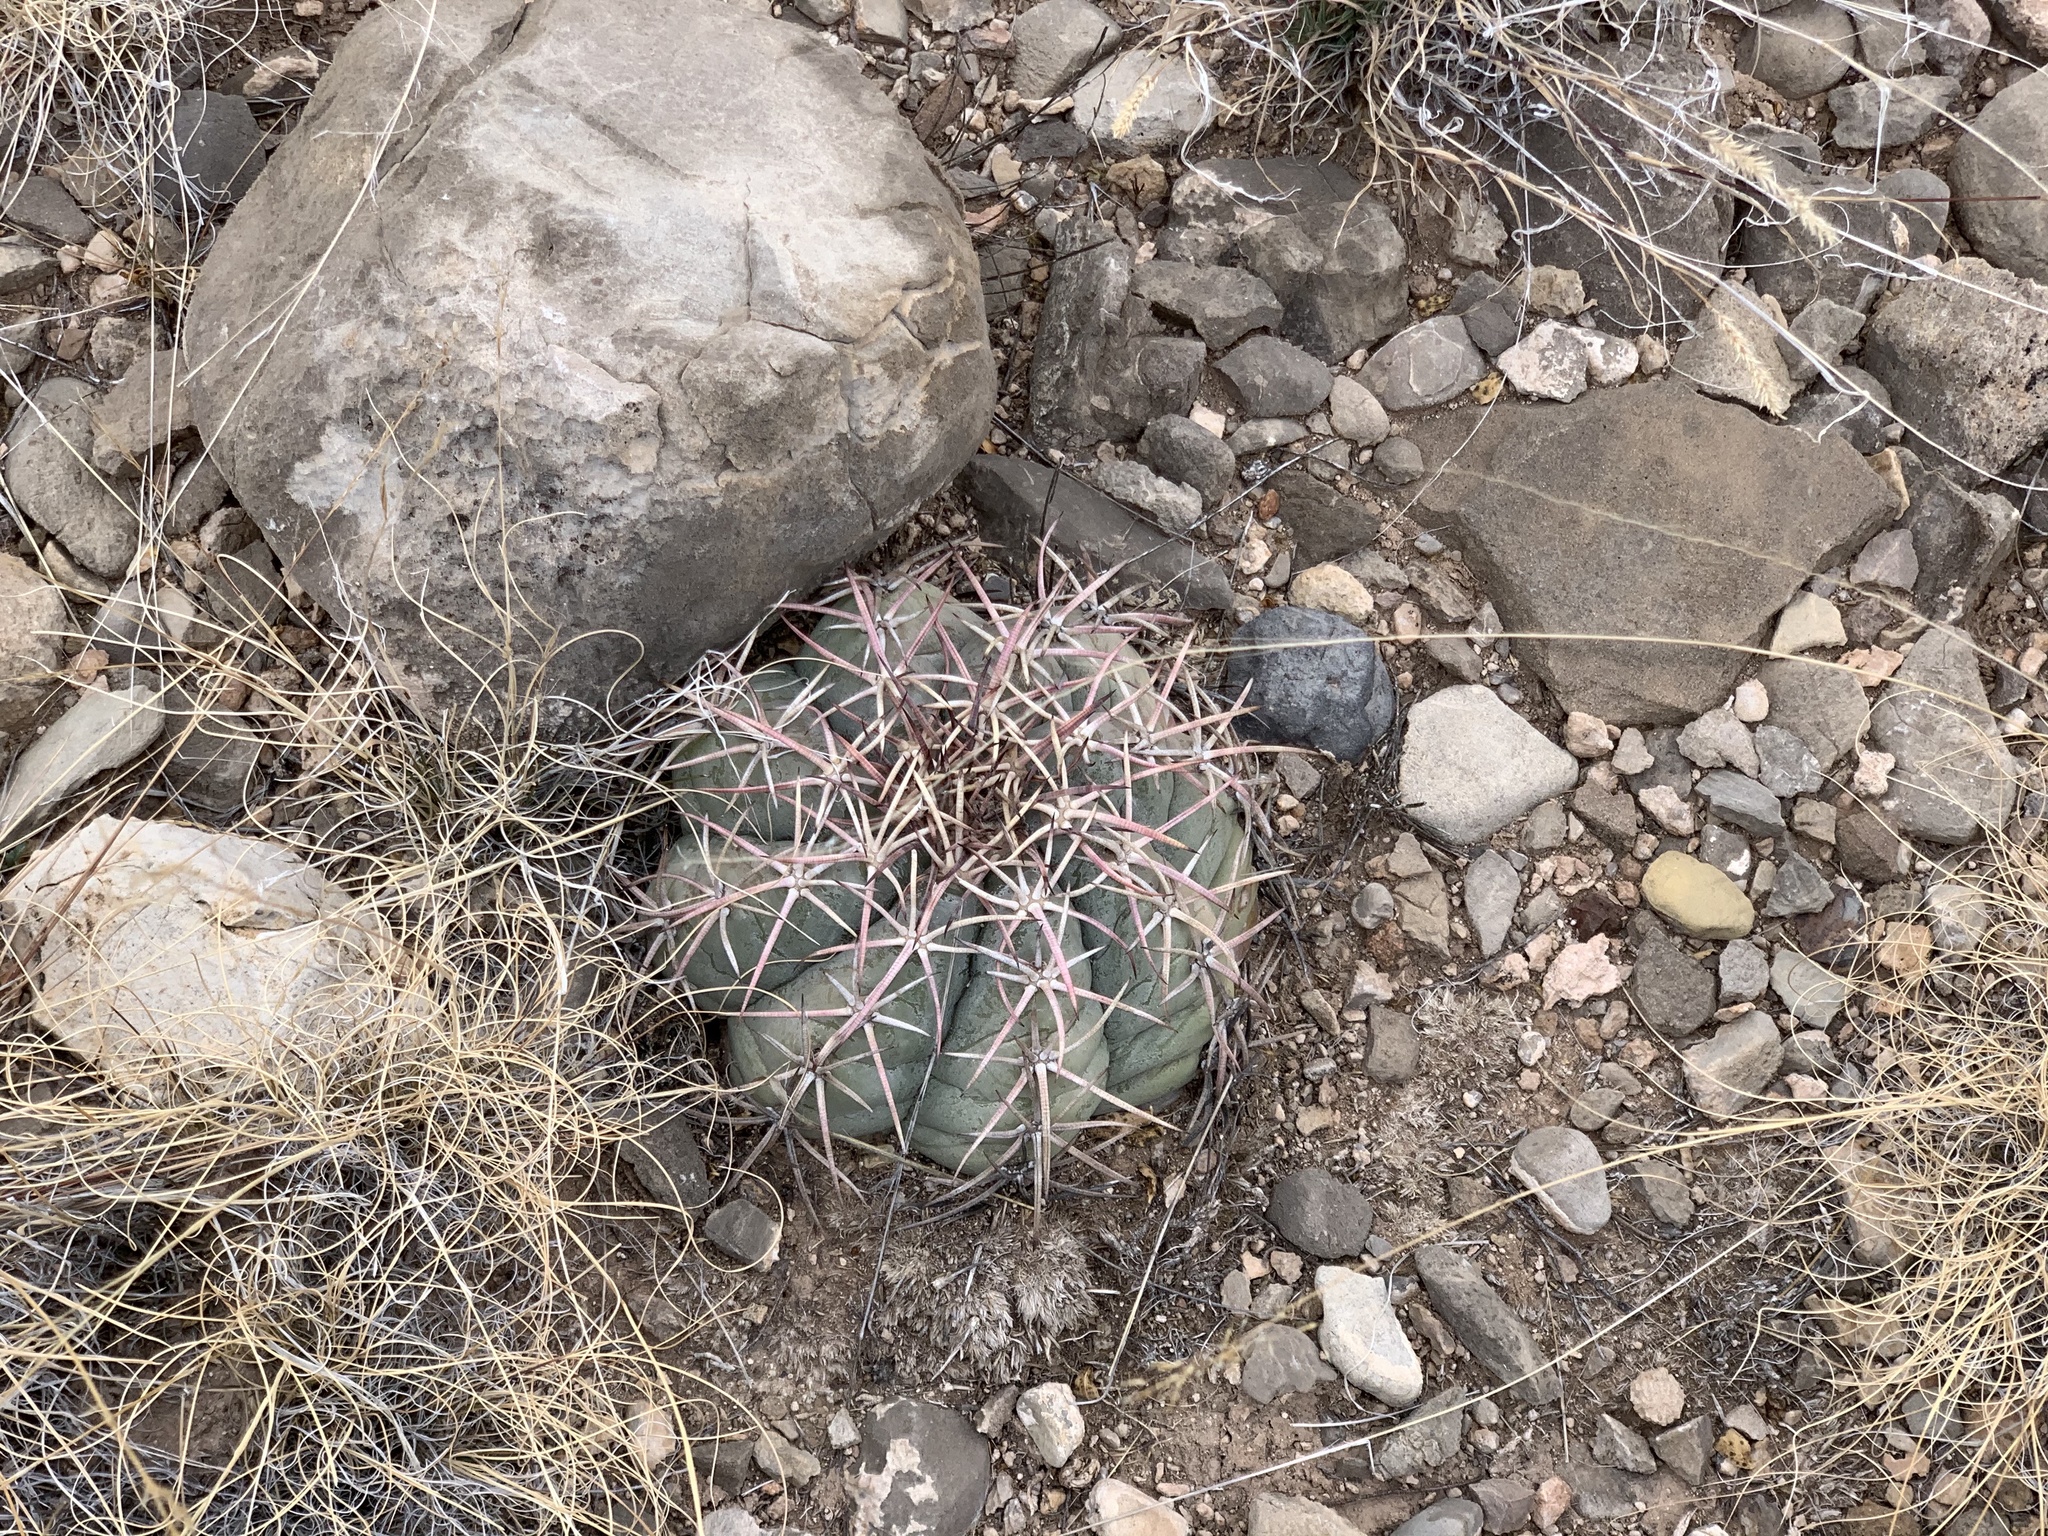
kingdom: Plantae
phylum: Tracheophyta
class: Magnoliopsida
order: Caryophyllales
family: Cactaceae
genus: Echinocactus
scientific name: Echinocactus horizonthalonius
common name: Devilshead
